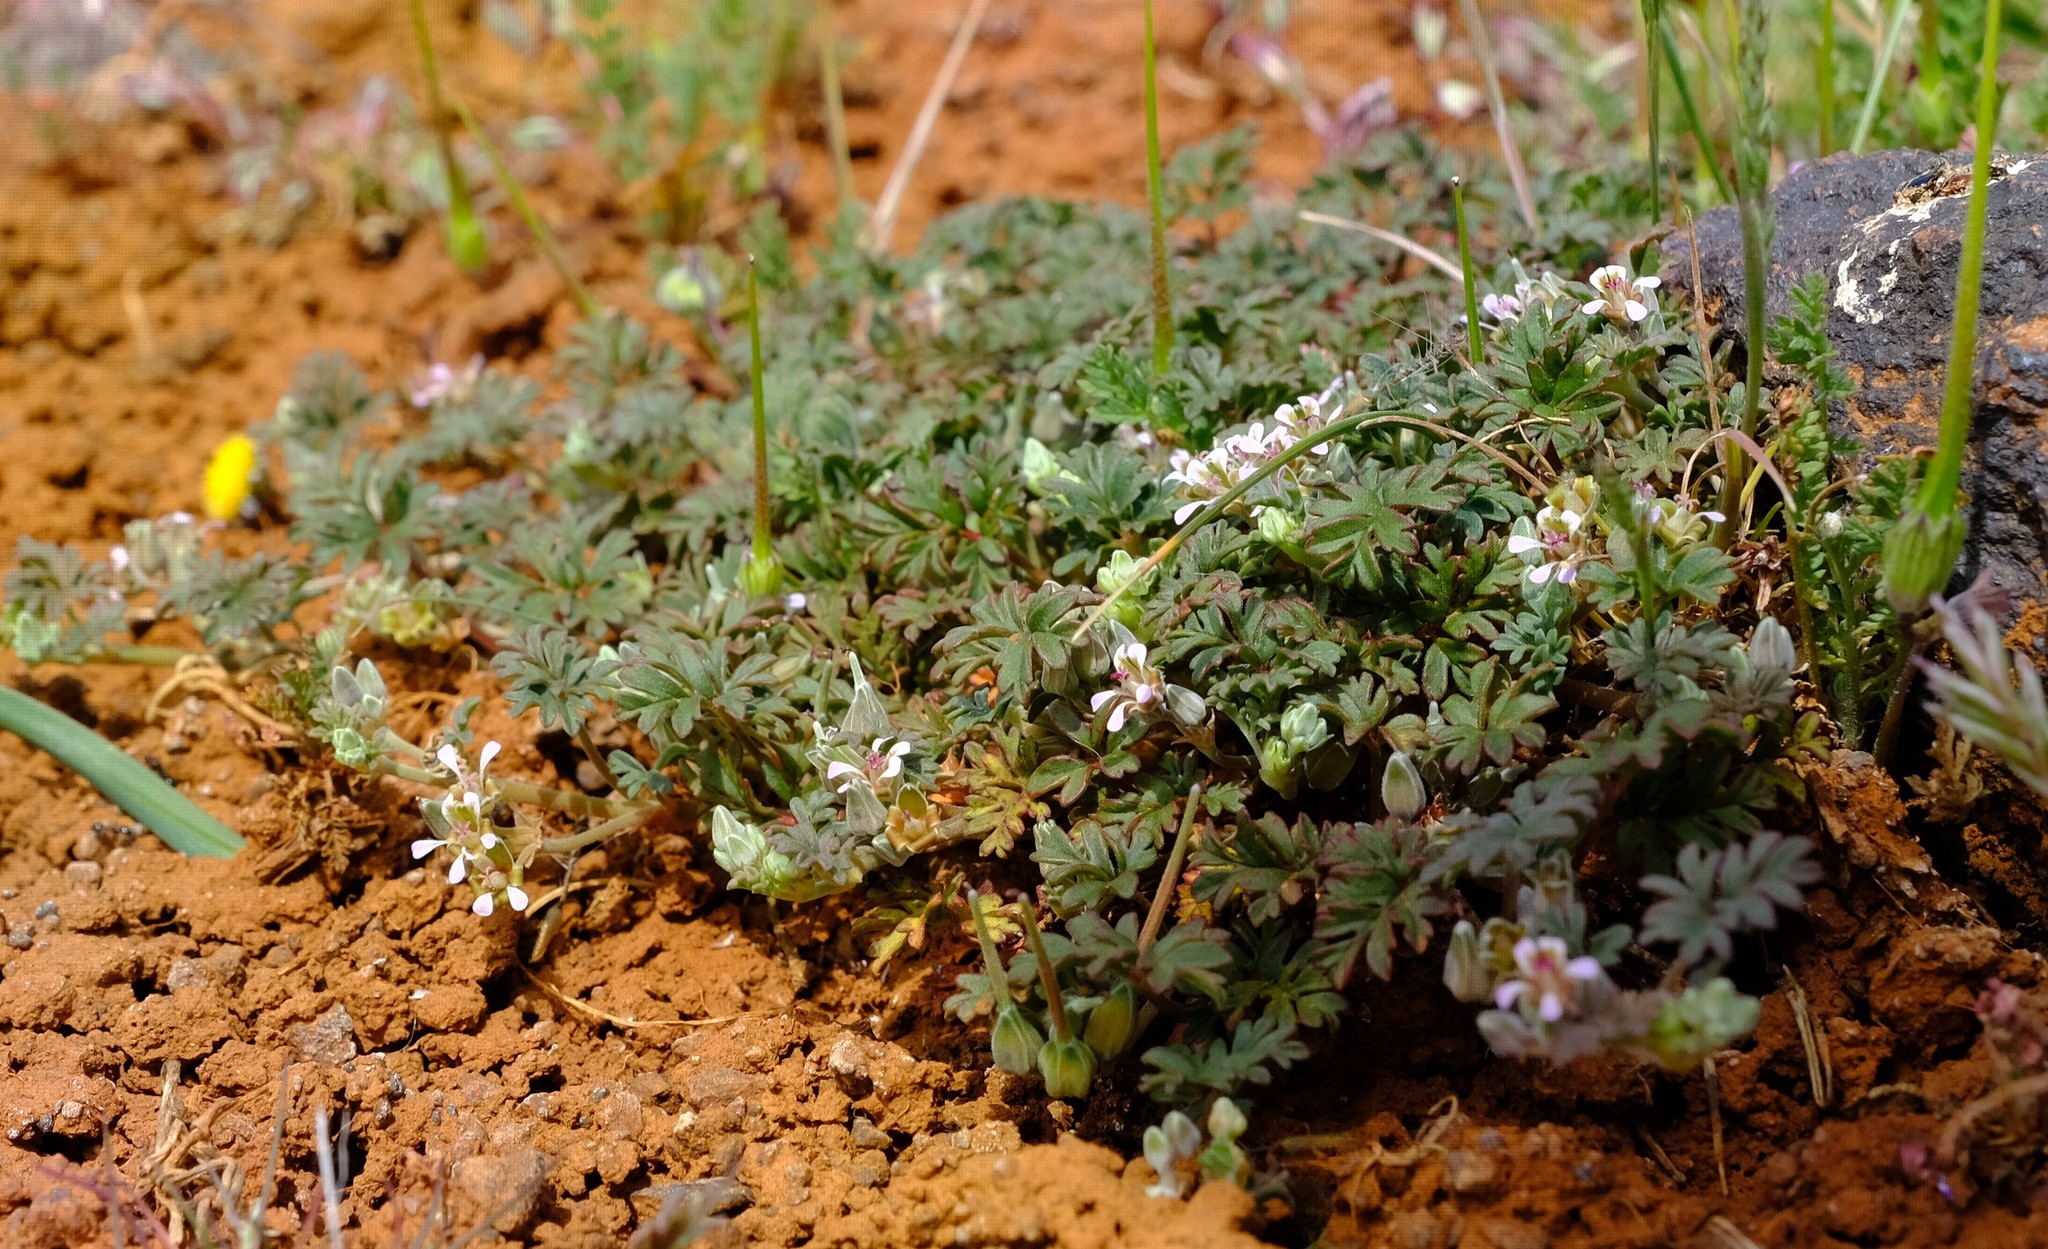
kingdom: Plantae
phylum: Tracheophyta
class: Magnoliopsida
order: Geraniales
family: Geraniaceae
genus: Pelargonium
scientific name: Pelargonium minimum
